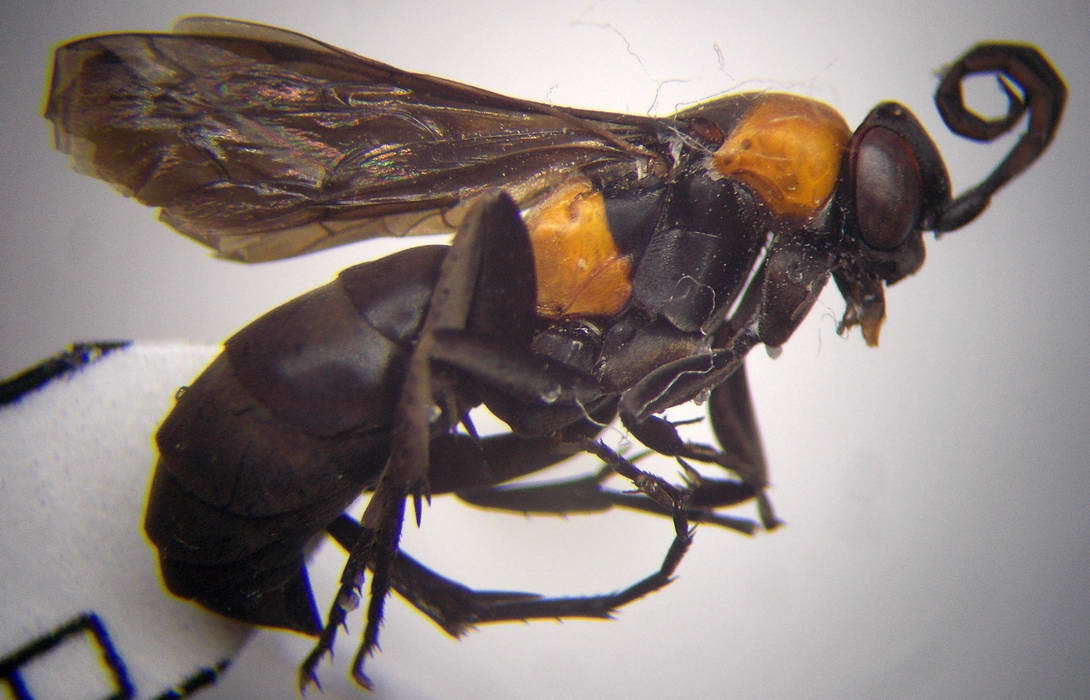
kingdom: Animalia
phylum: Arthropoda
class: Insecta
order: Hymenoptera
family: Pompilidae
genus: Eoferreola
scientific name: Eoferreola manticata
